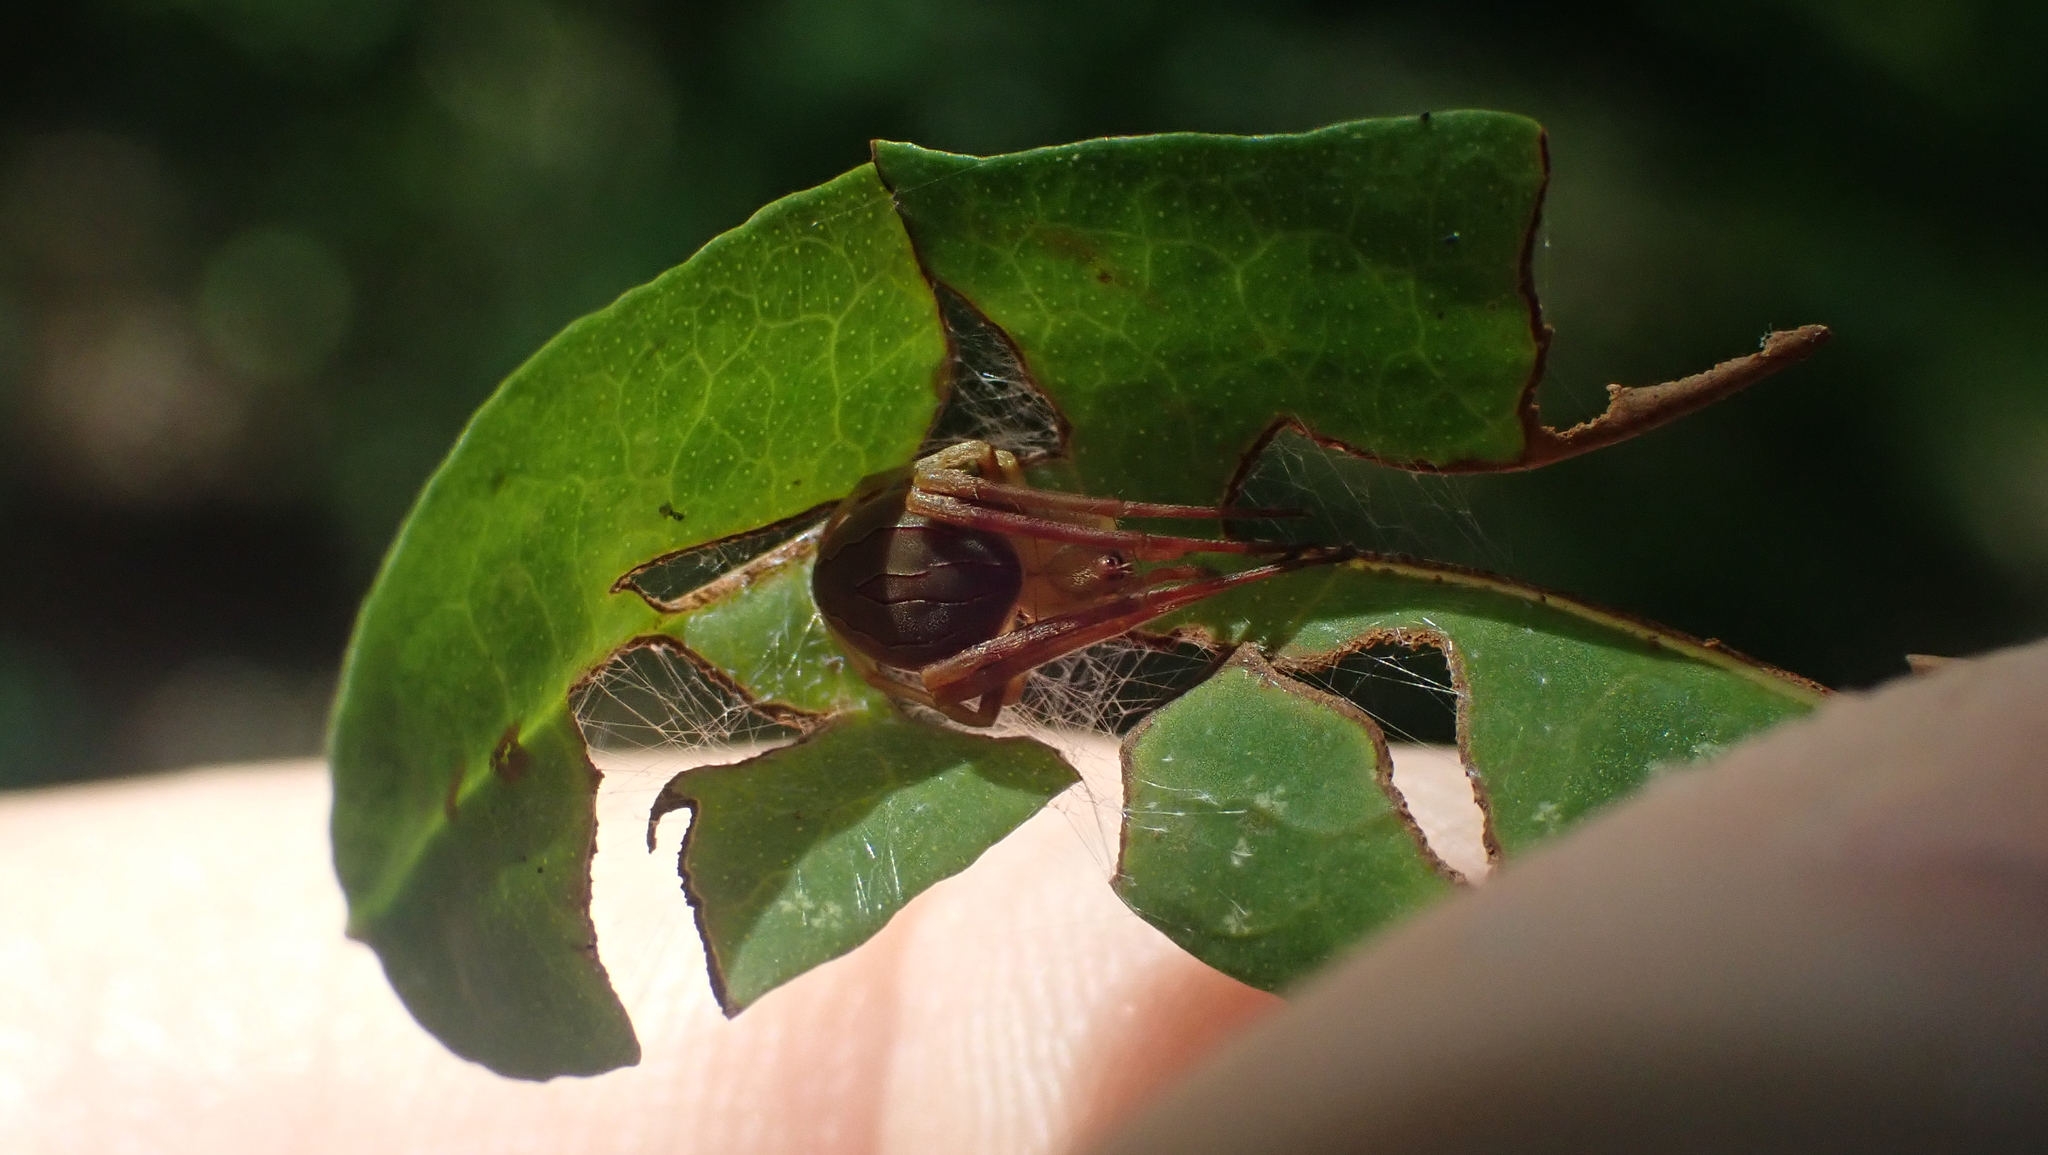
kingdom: Animalia
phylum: Arthropoda
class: Arachnida
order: Araneae
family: Araneidae
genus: Acacesia
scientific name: Acacesia hamata
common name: Orb weavers
